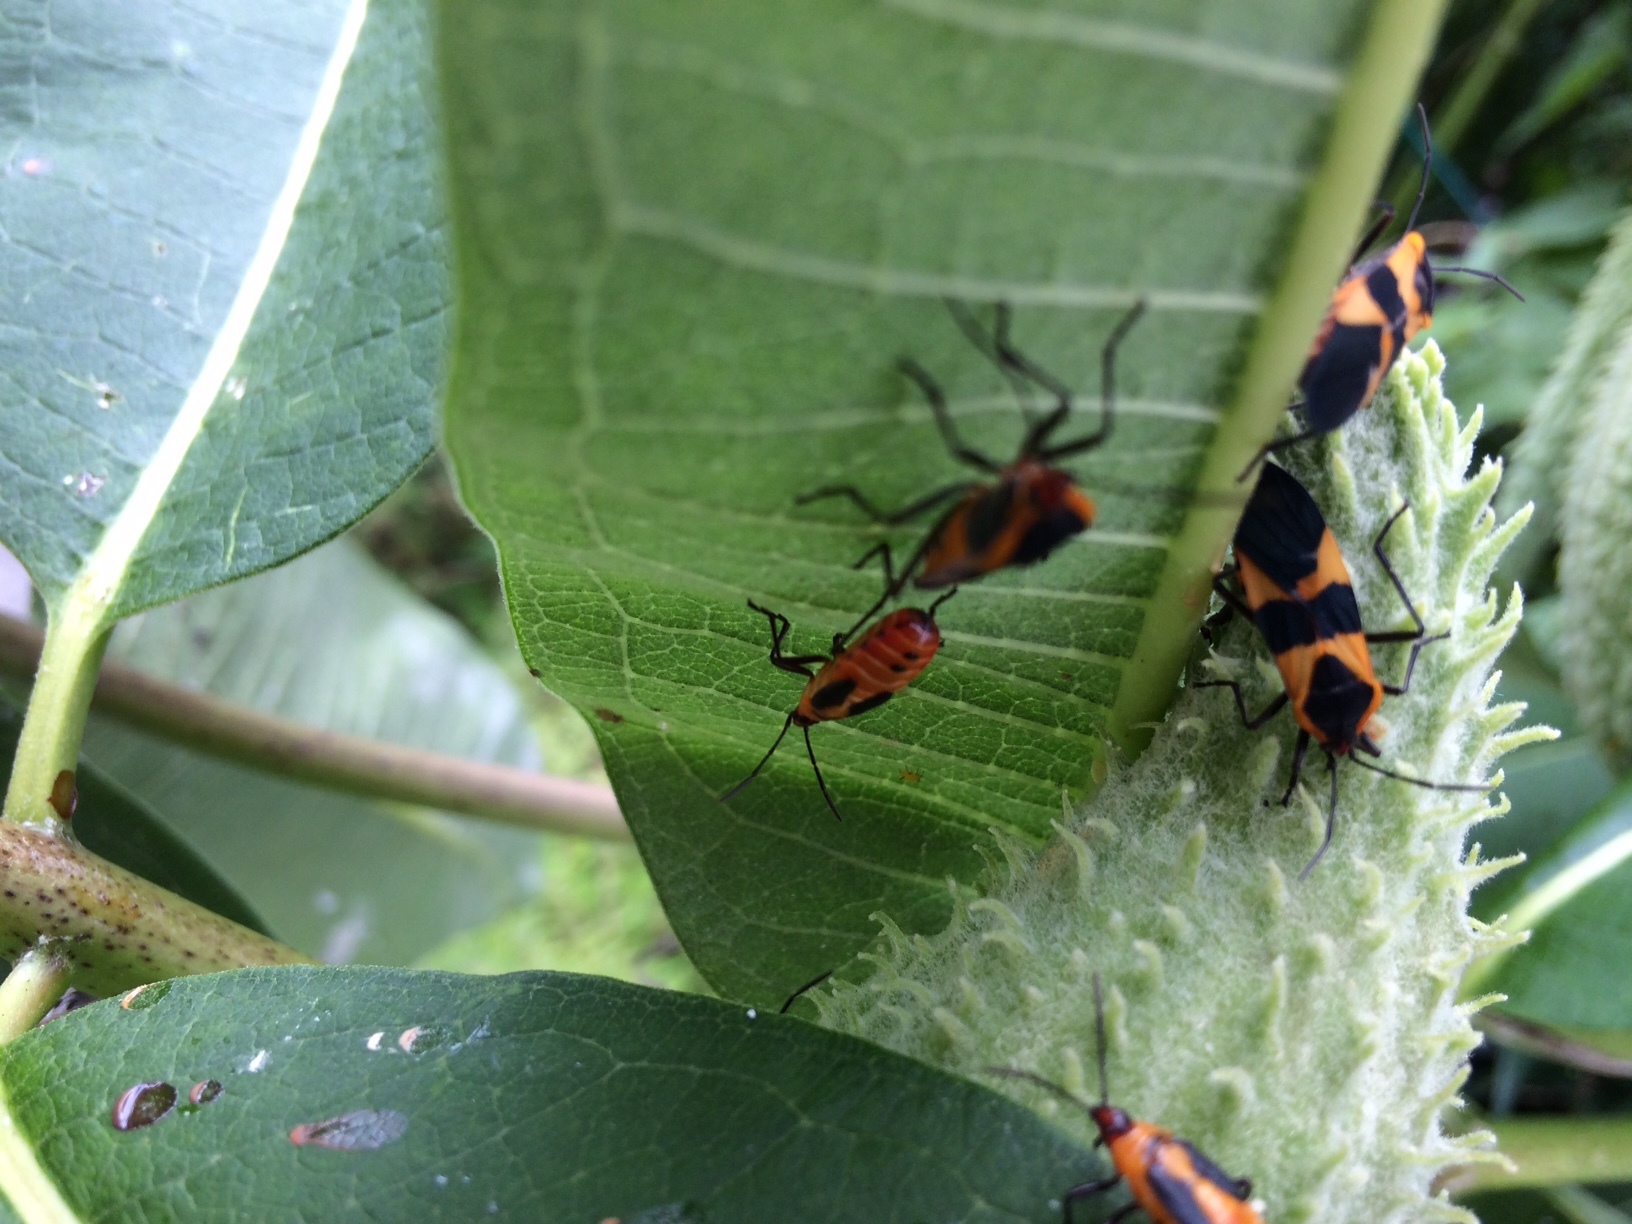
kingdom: Animalia
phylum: Arthropoda
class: Insecta
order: Hemiptera
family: Lygaeidae
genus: Oncopeltus
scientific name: Oncopeltus fasciatus
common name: Large milkweed bug
